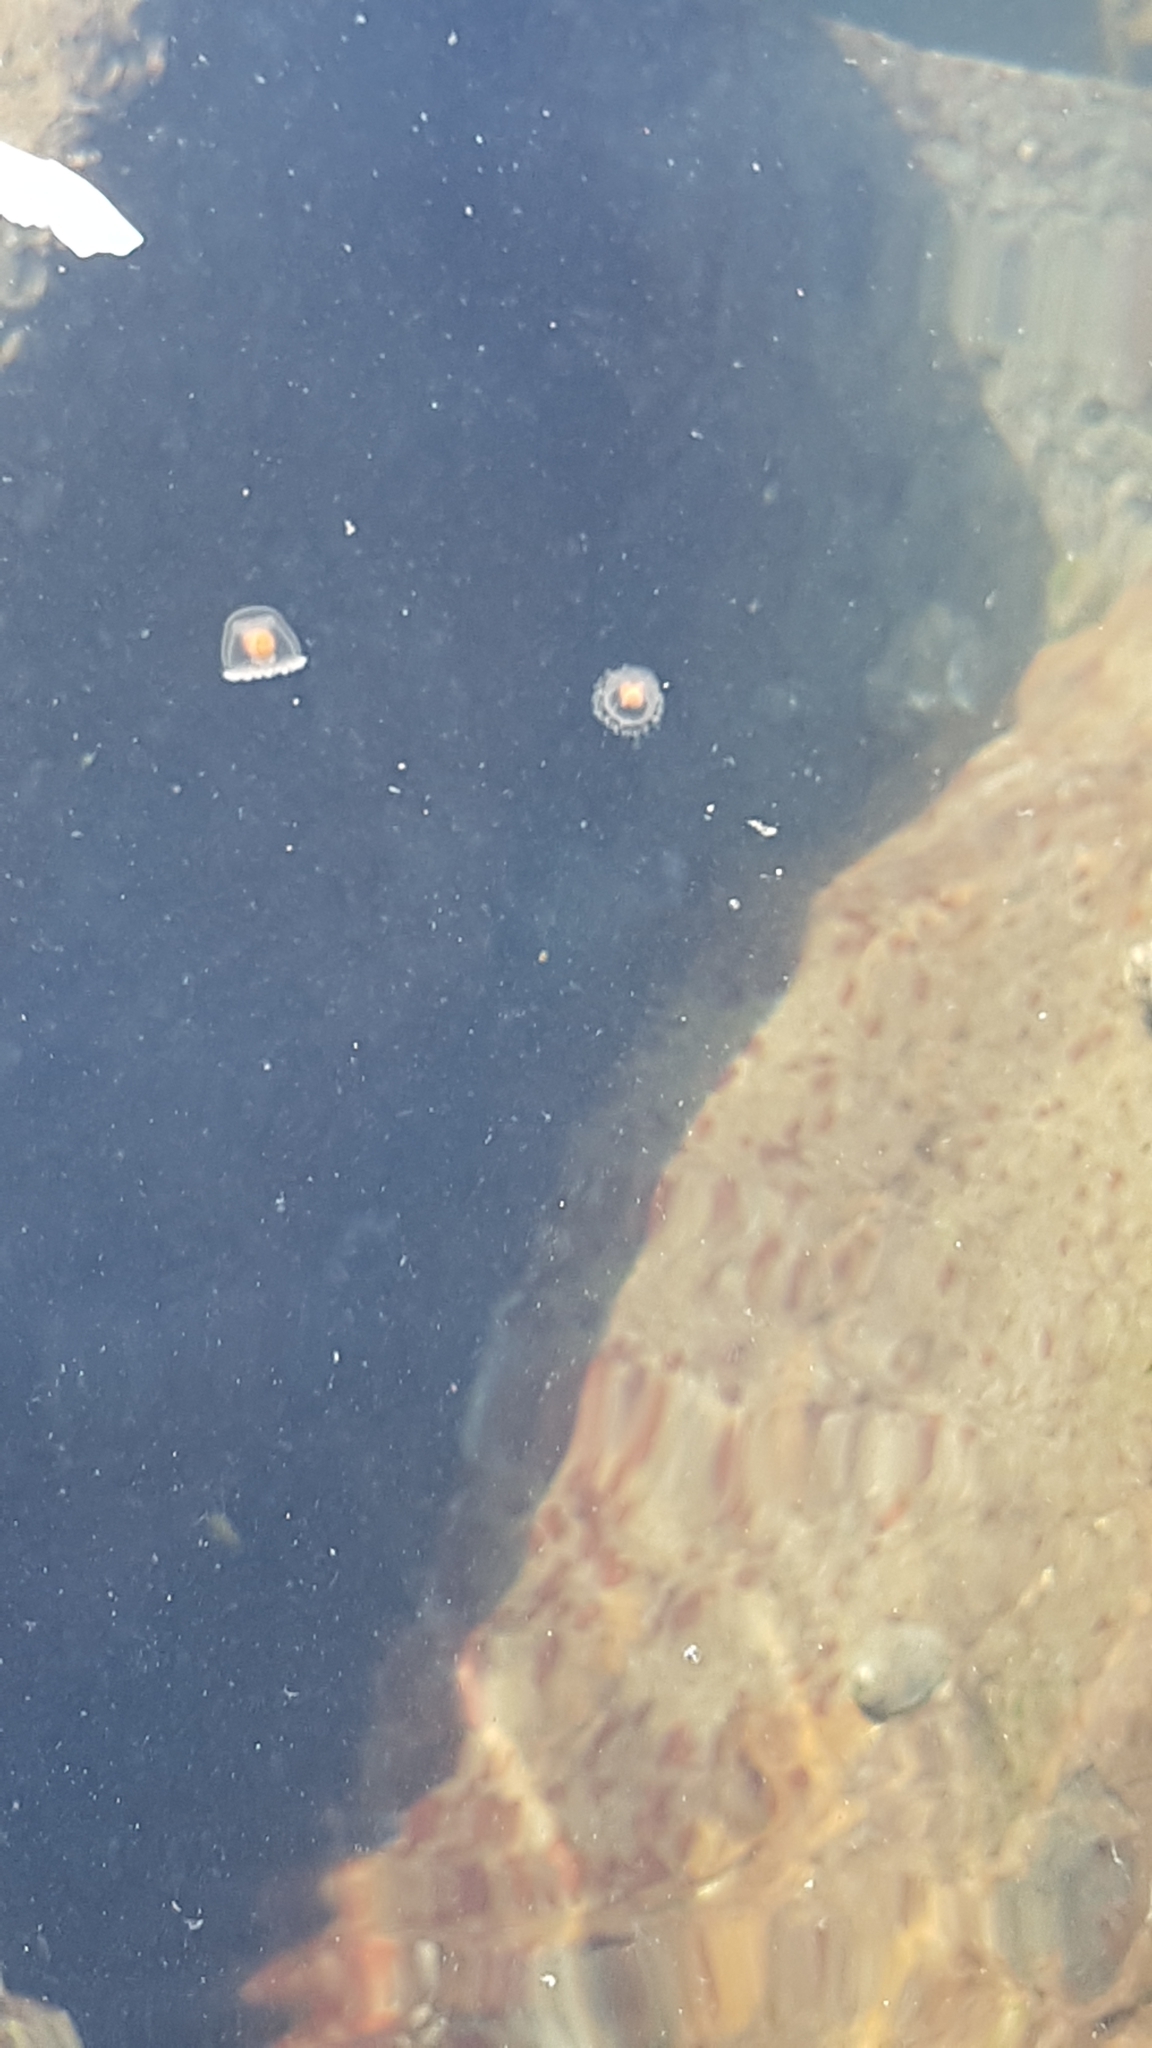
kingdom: Animalia
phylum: Cnidaria
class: Hydrozoa
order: Anthoathecata
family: Oceaniidae
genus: Turritopsis
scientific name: Turritopsis rubra
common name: Crimson jelly
